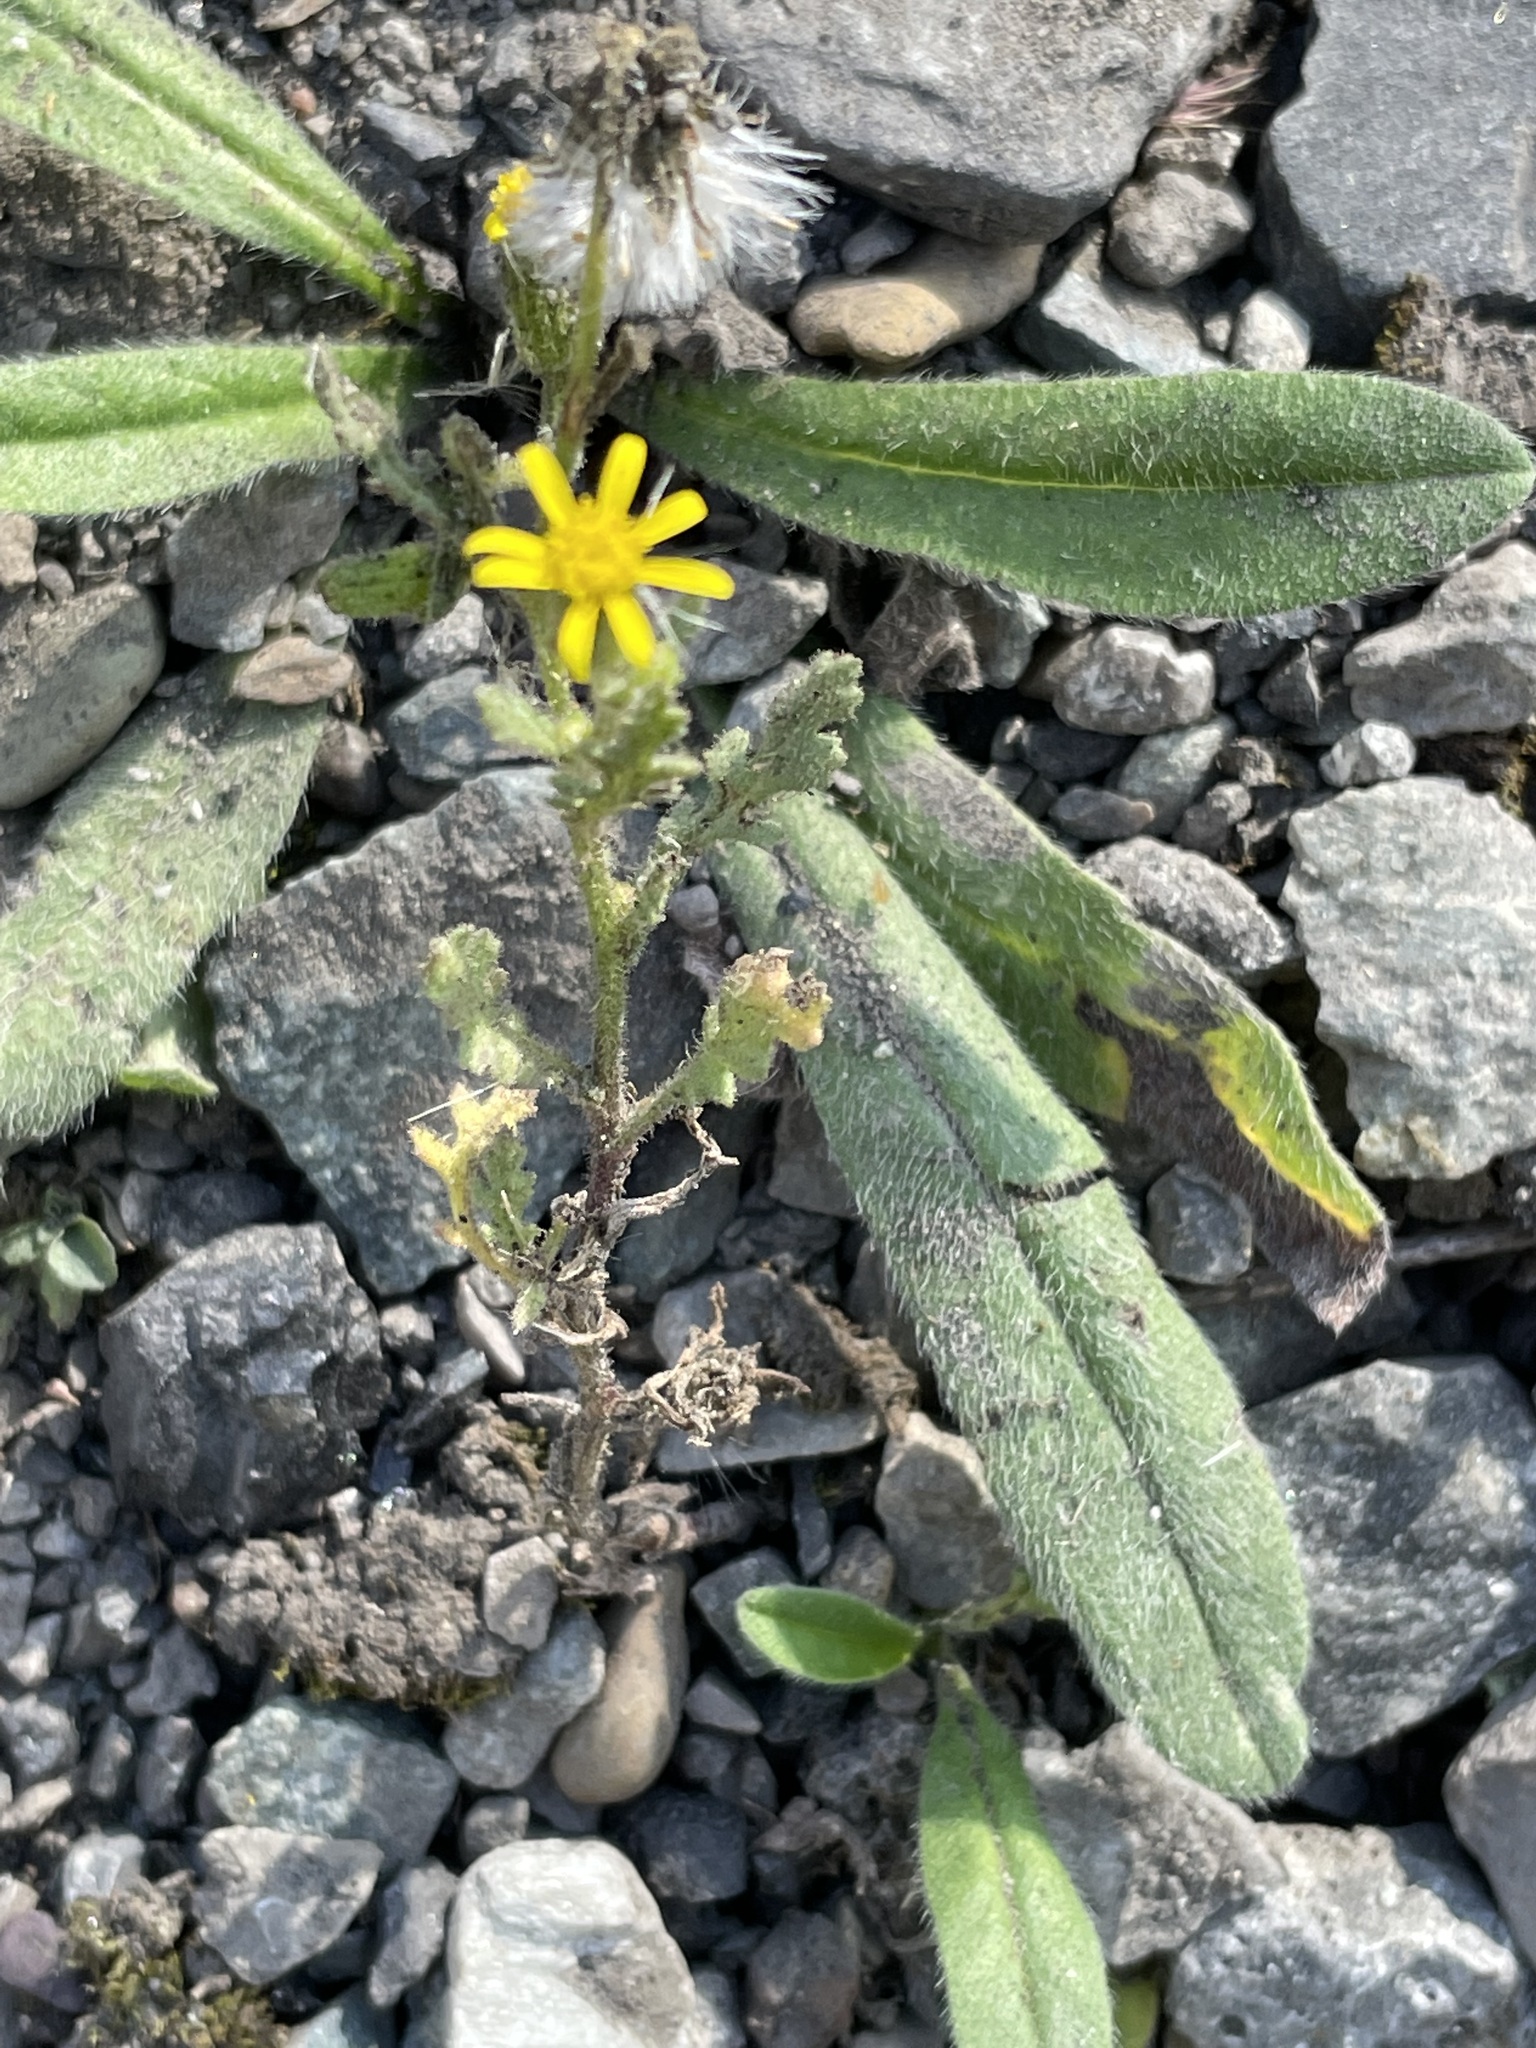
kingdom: Plantae
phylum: Tracheophyta
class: Magnoliopsida
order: Asterales
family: Asteraceae
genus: Senecio
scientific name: Senecio viscosus
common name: Sticky groundsel
